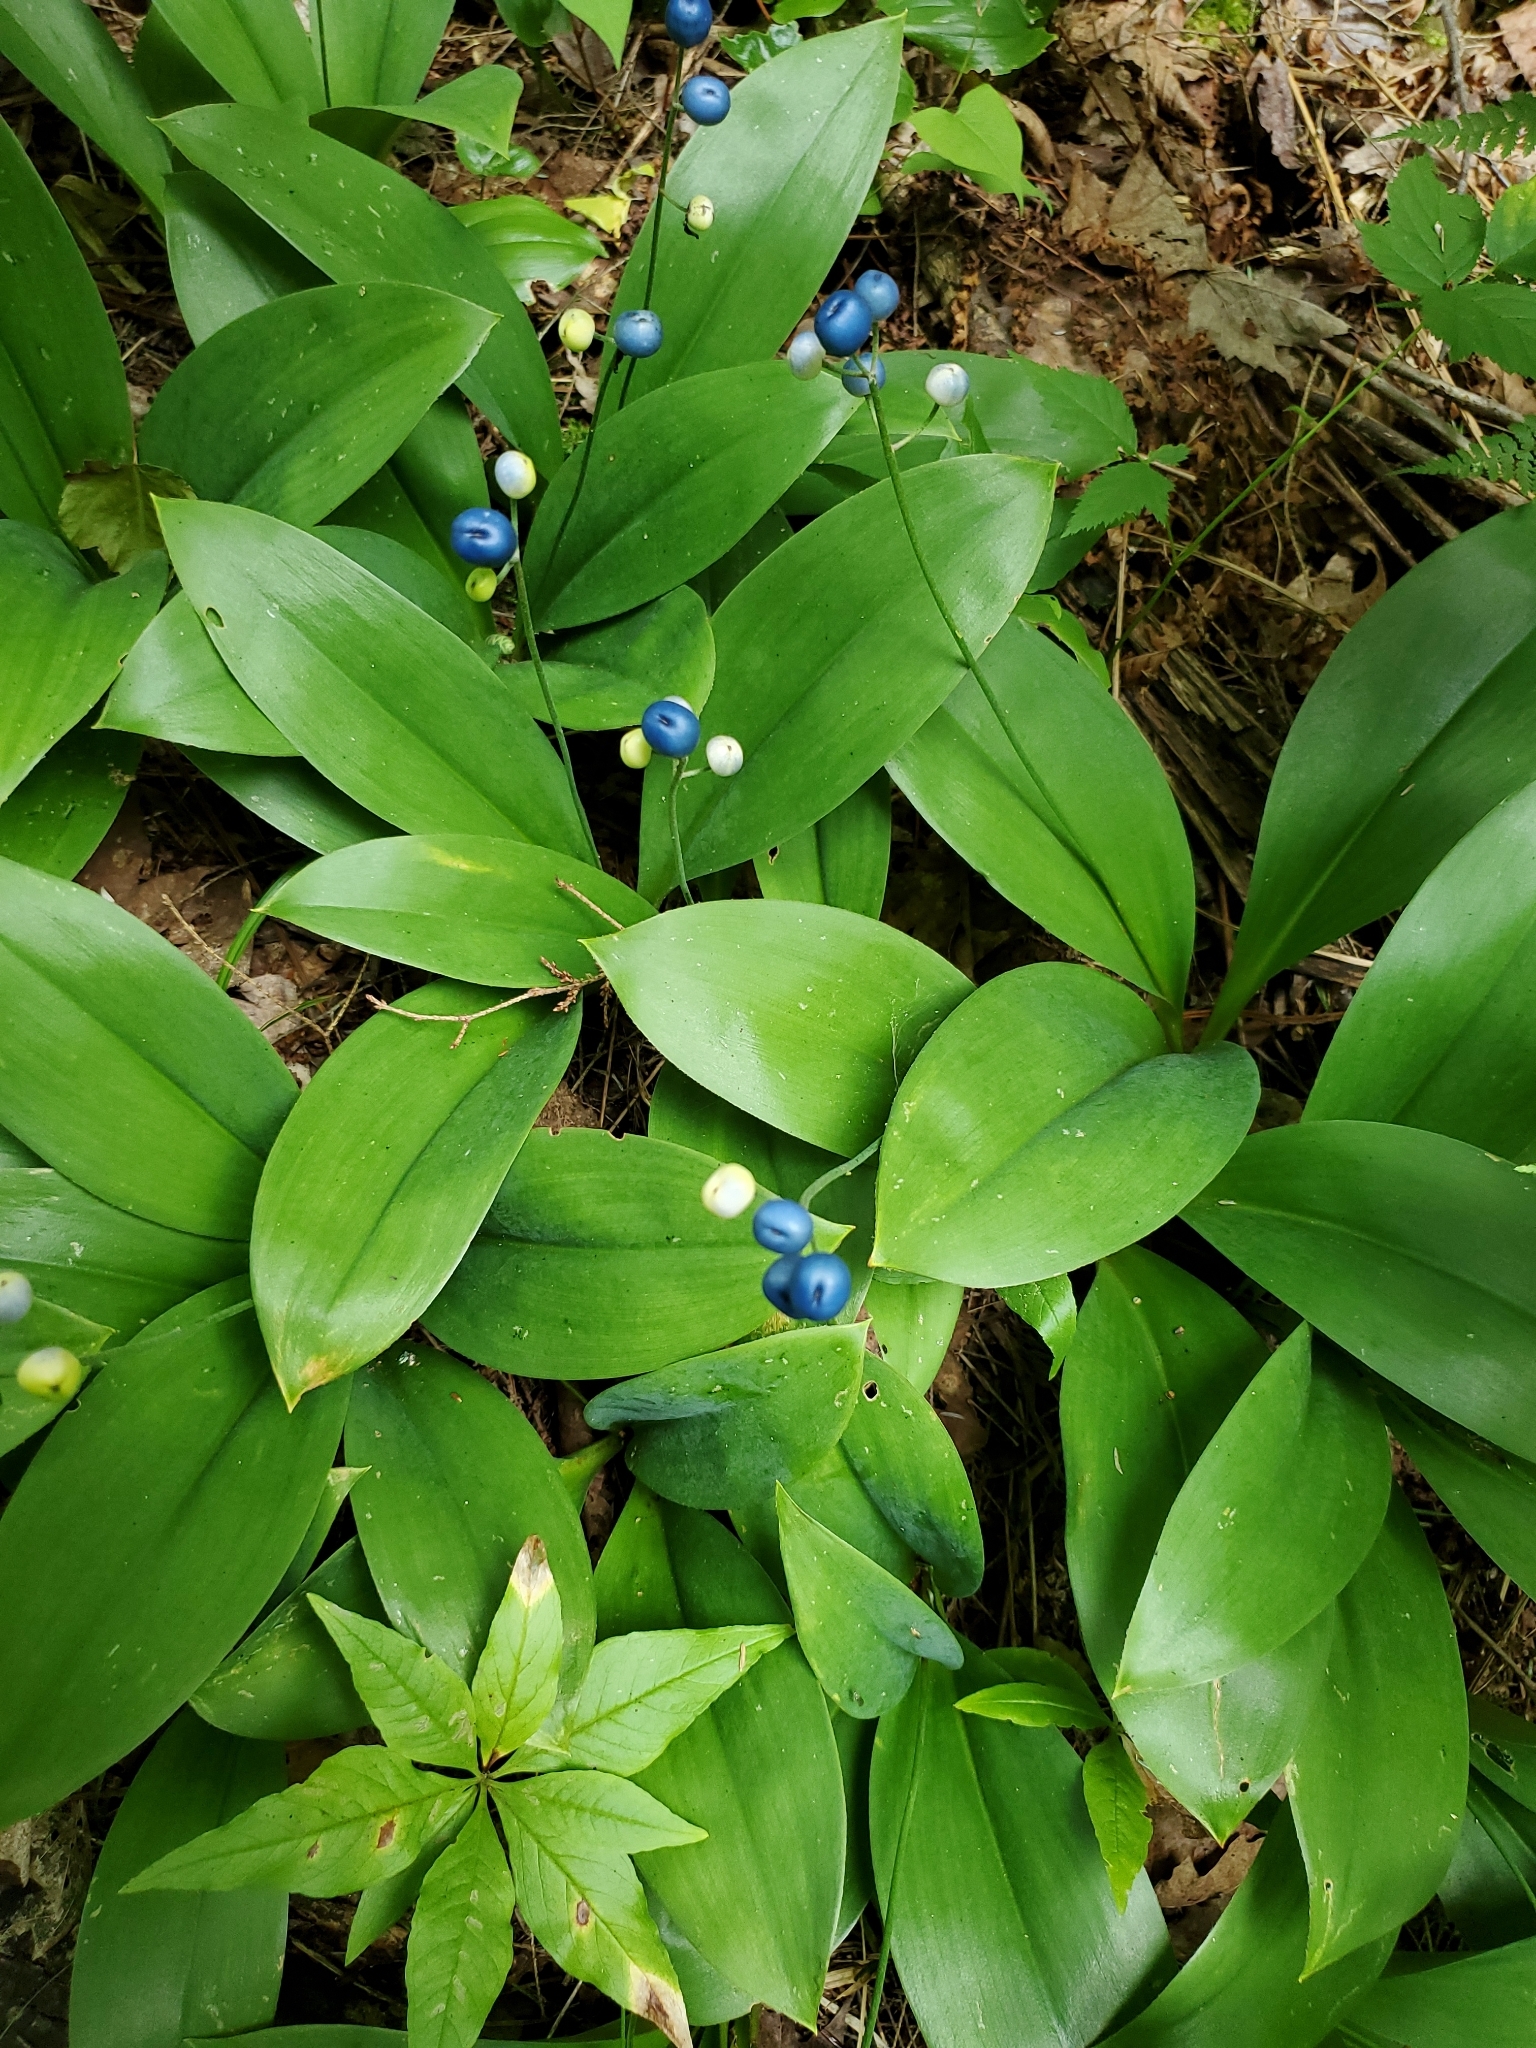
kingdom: Plantae
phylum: Tracheophyta
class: Liliopsida
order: Liliales
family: Liliaceae
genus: Clintonia
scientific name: Clintonia borealis
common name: Yellow clintonia
